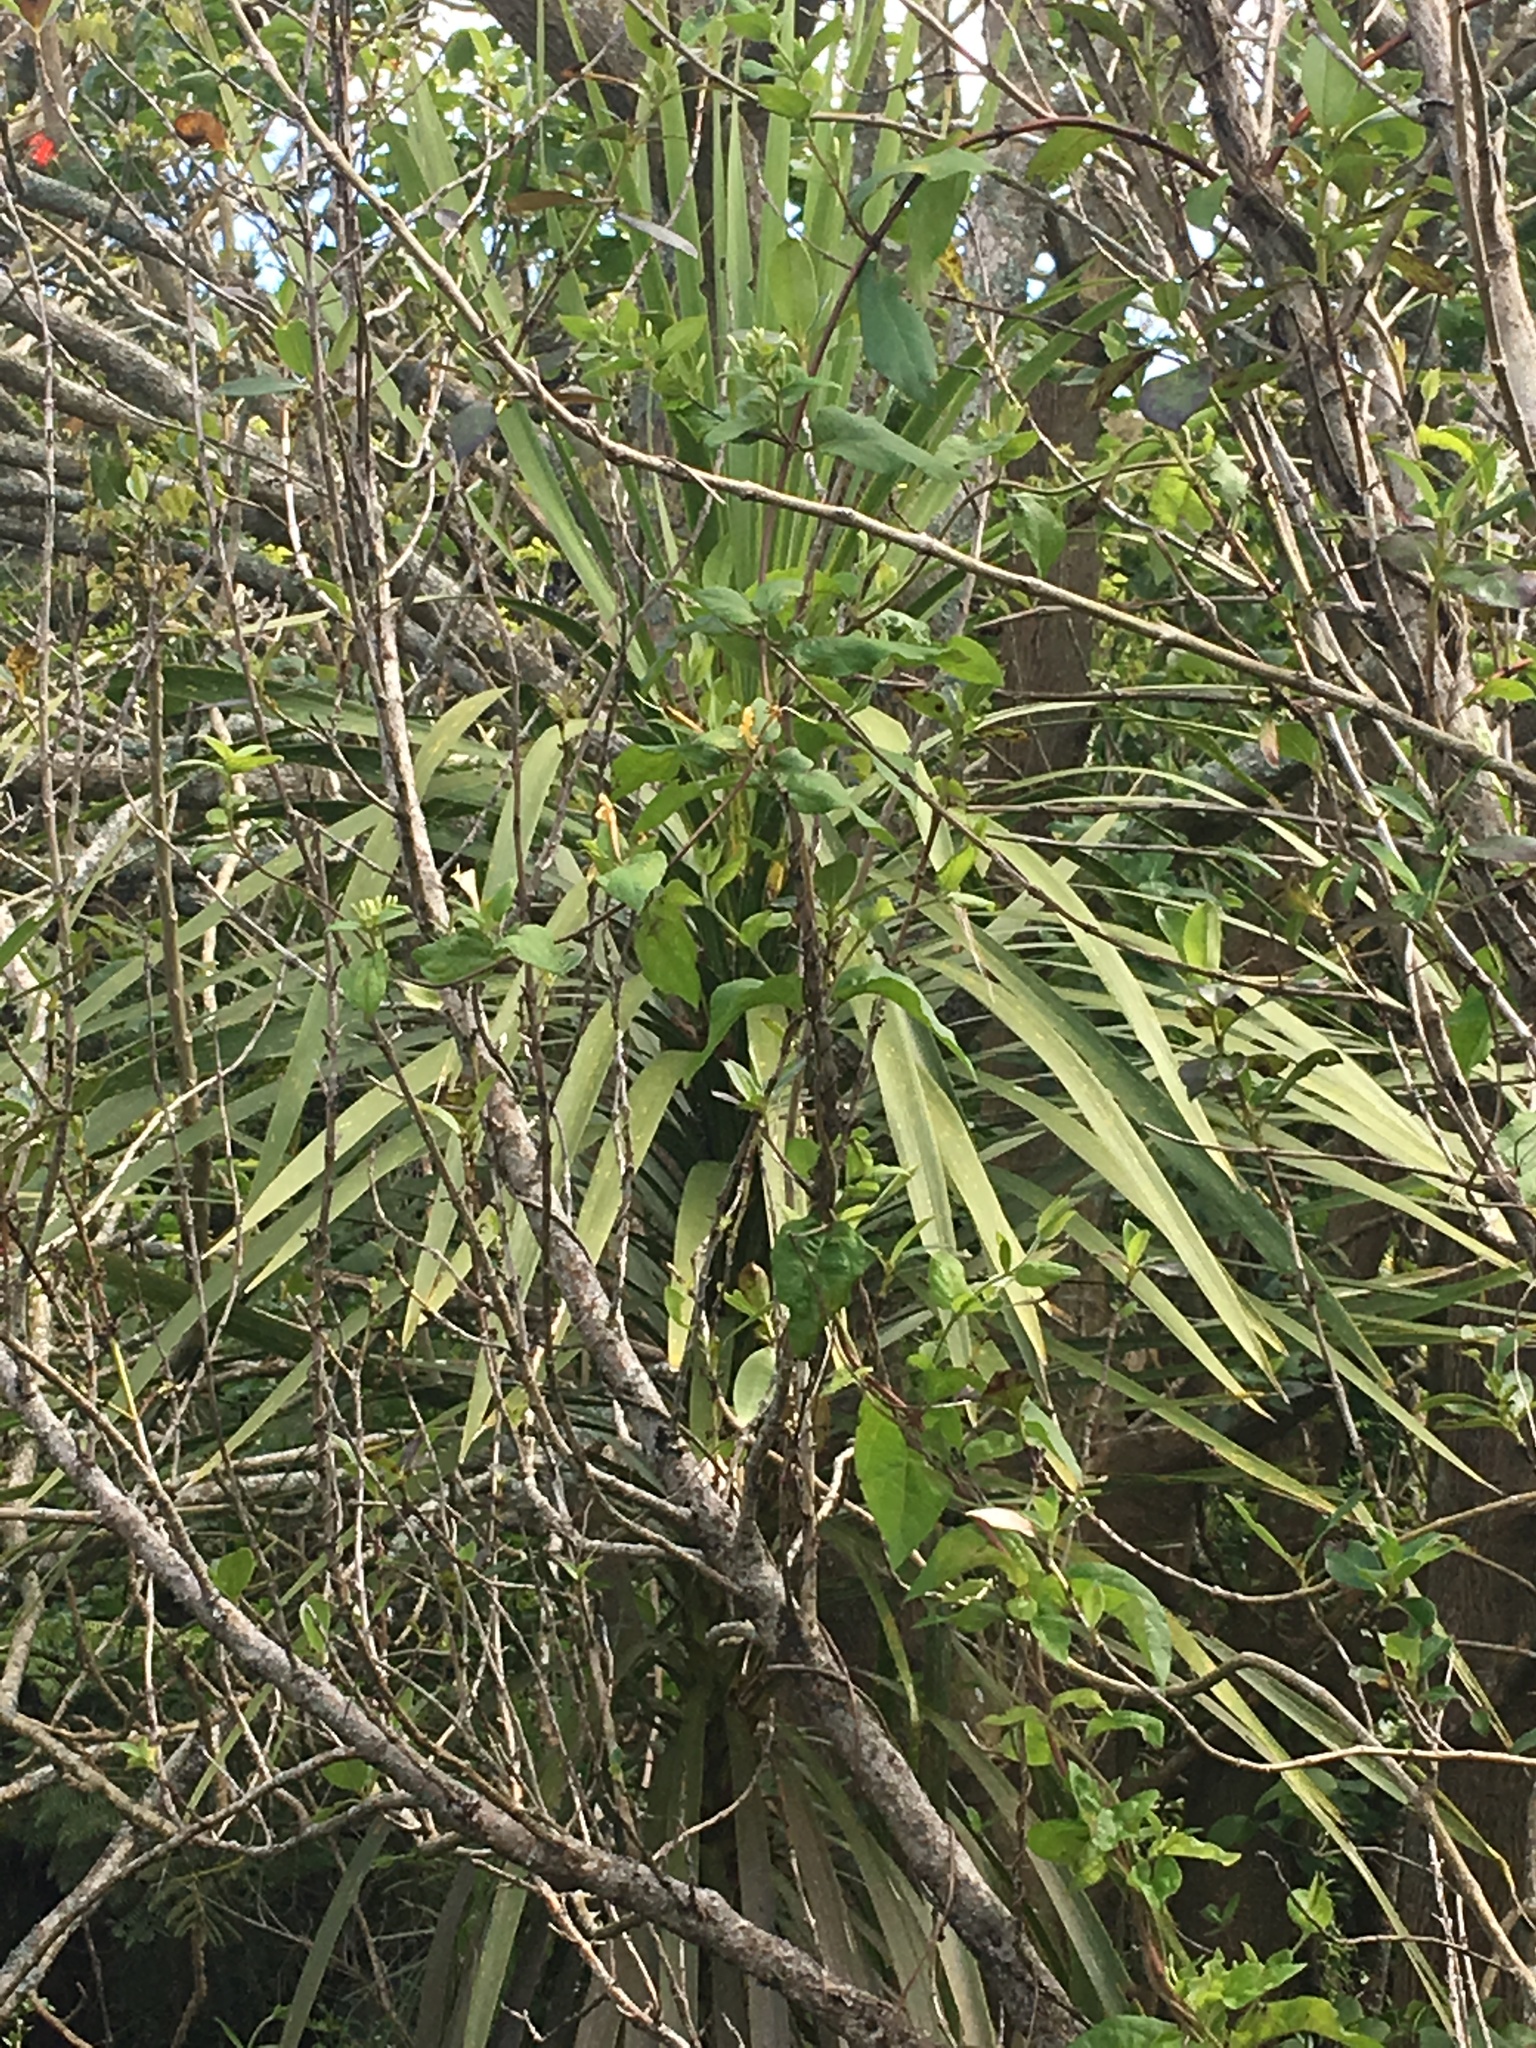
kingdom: Plantae
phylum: Tracheophyta
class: Liliopsida
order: Asparagales
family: Asparagaceae
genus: Cordyline
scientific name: Cordyline australis
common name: Cabbage-palm
